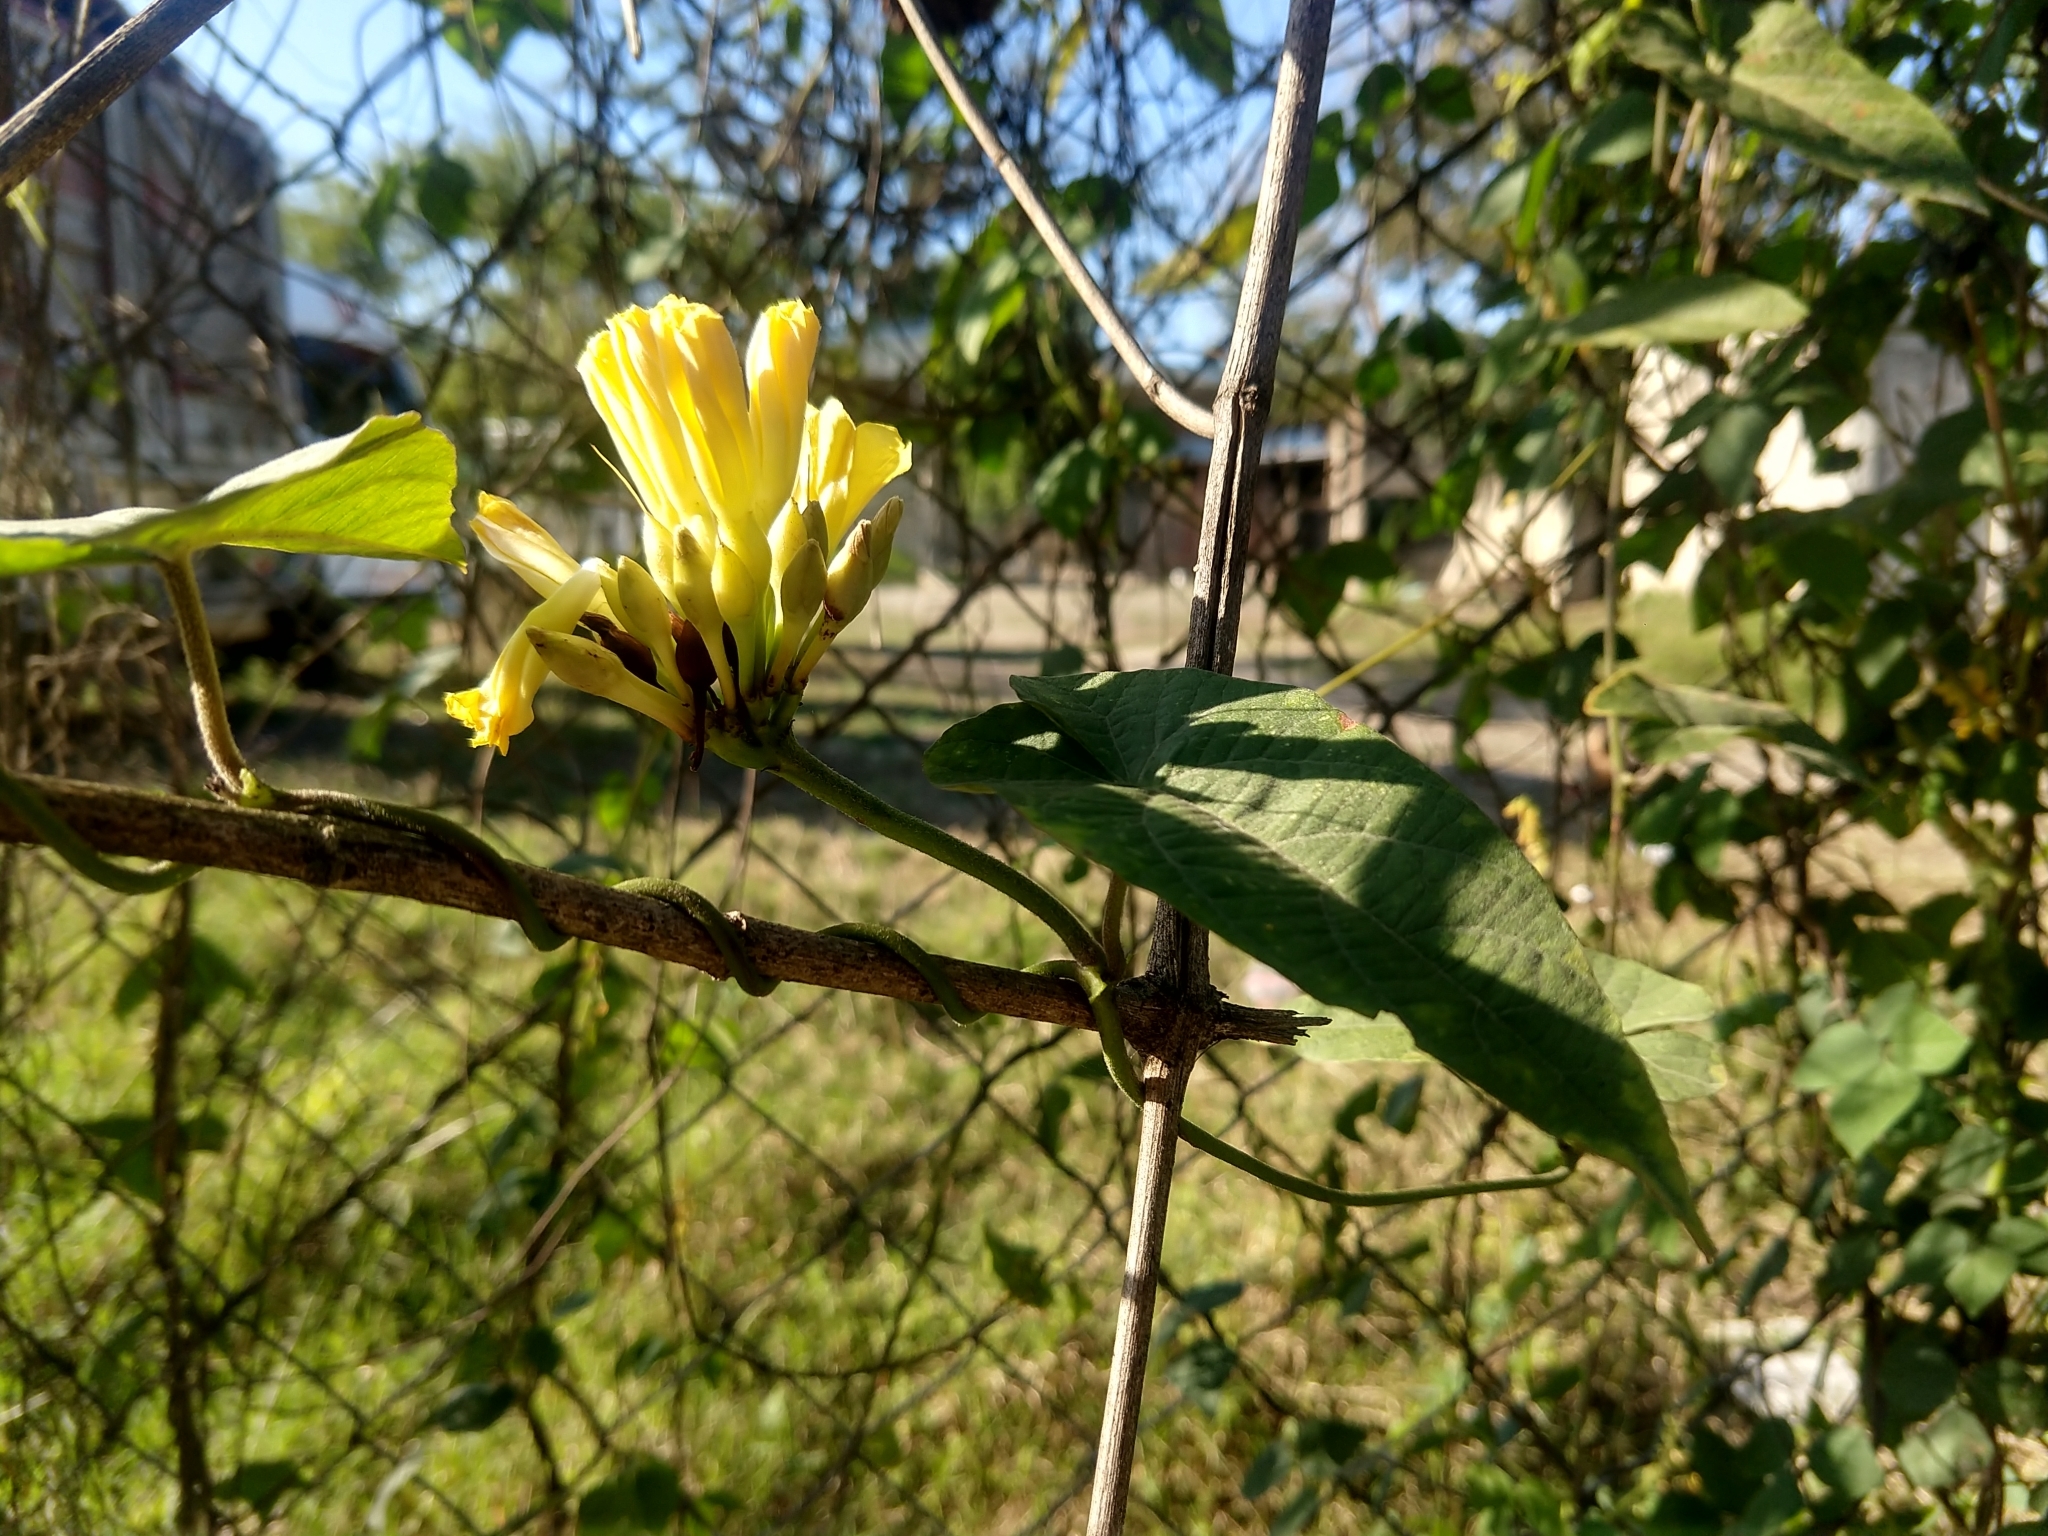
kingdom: Plantae
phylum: Tracheophyta
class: Magnoliopsida
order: Solanales
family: Convolvulaceae
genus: Camonea
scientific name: Camonea umbellata
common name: Hogvine
